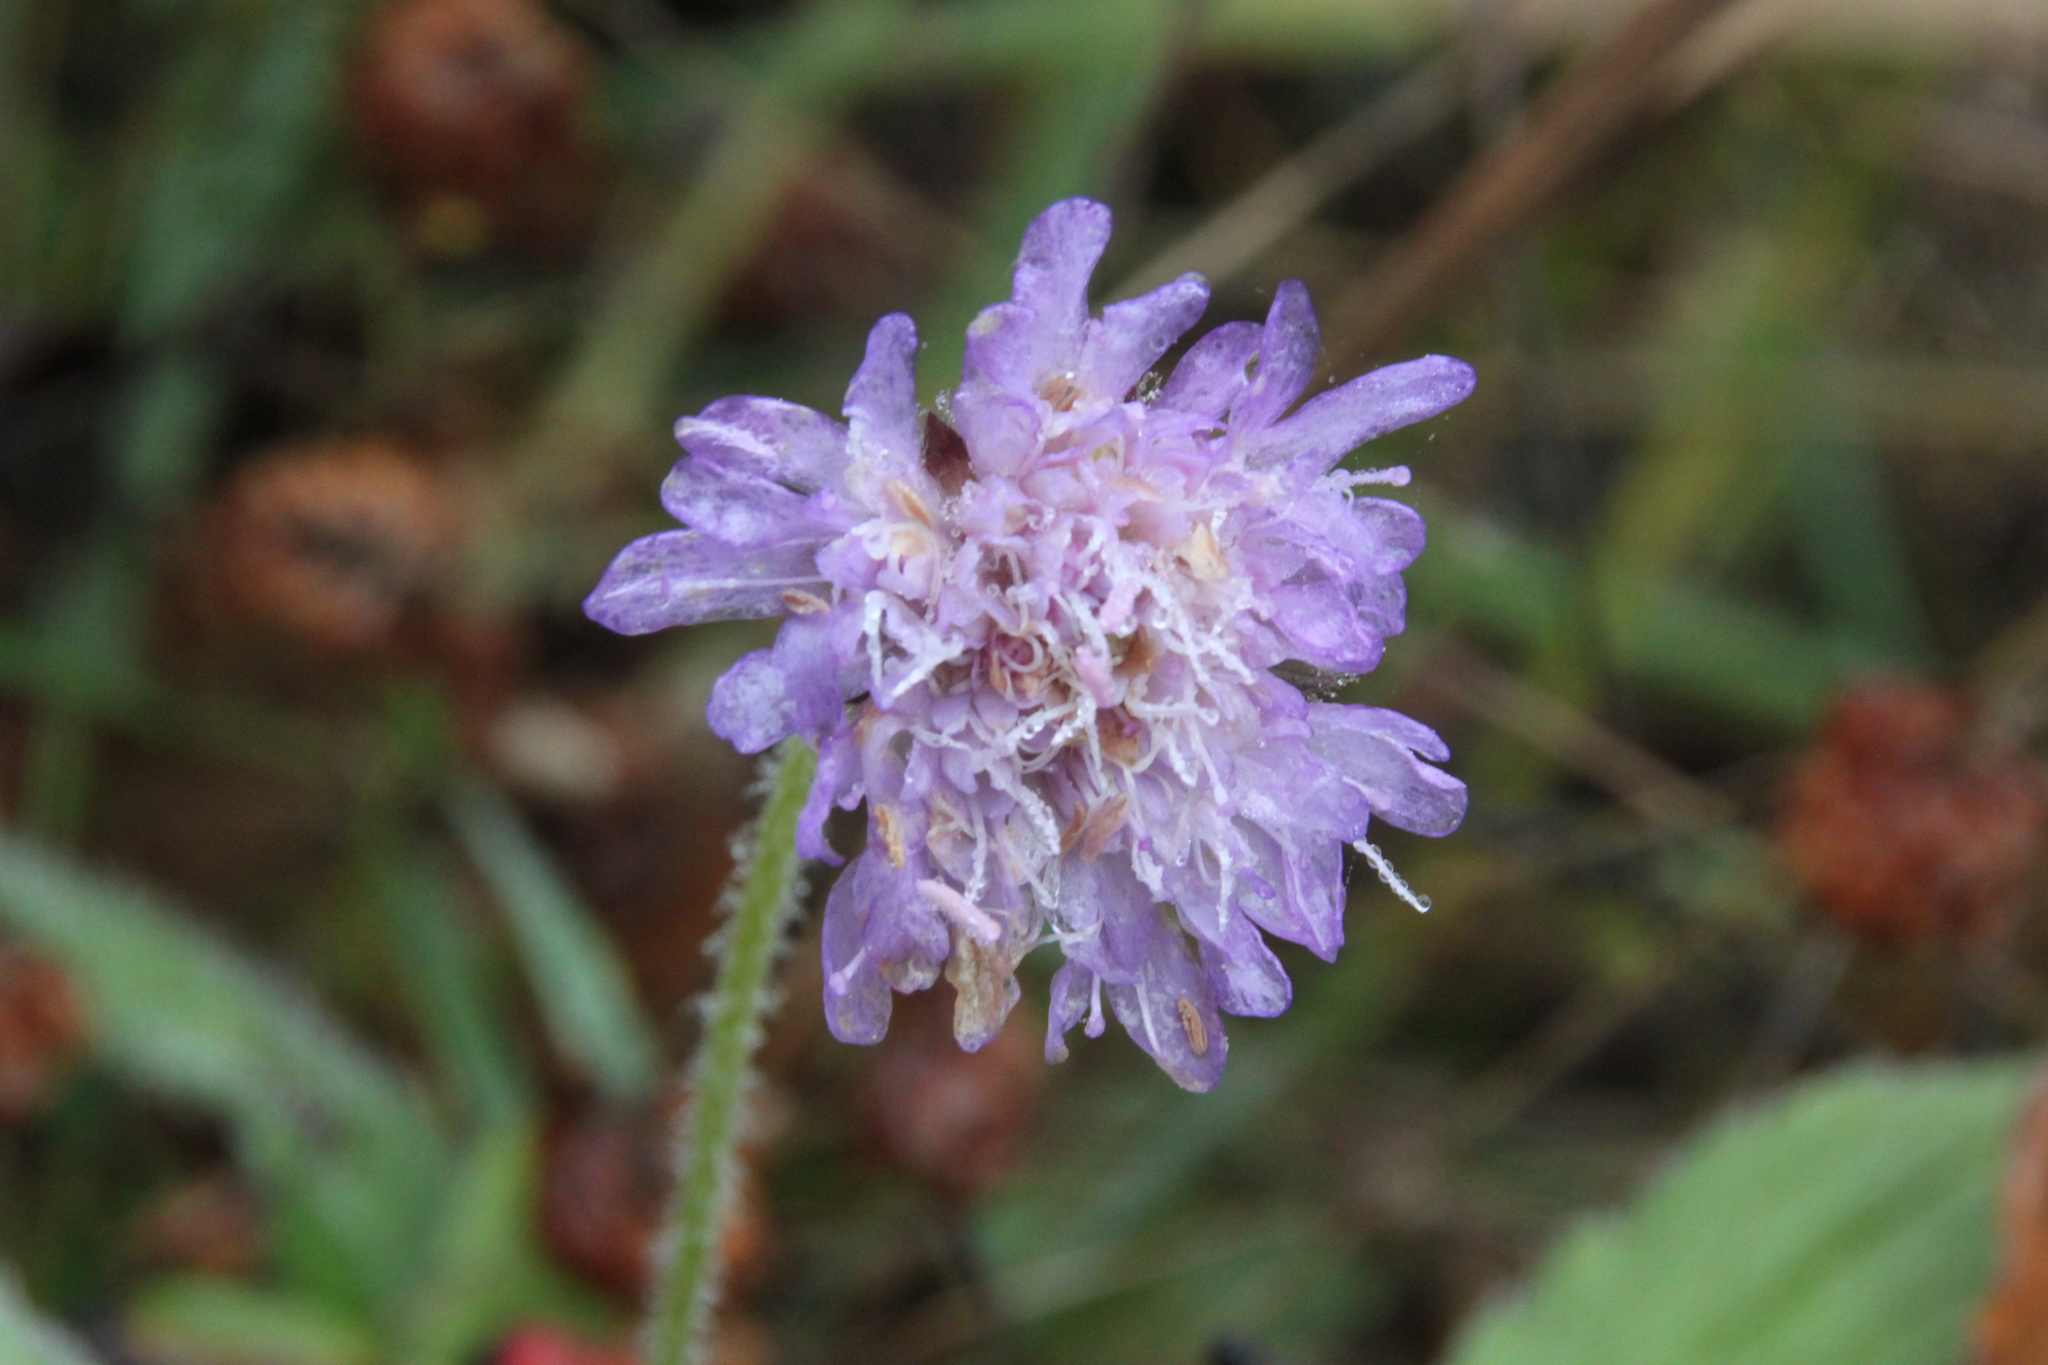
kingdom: Plantae
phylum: Tracheophyta
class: Magnoliopsida
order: Dipsacales
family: Caprifoliaceae
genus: Knautia
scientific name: Knautia arvensis
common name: Field scabiosa
